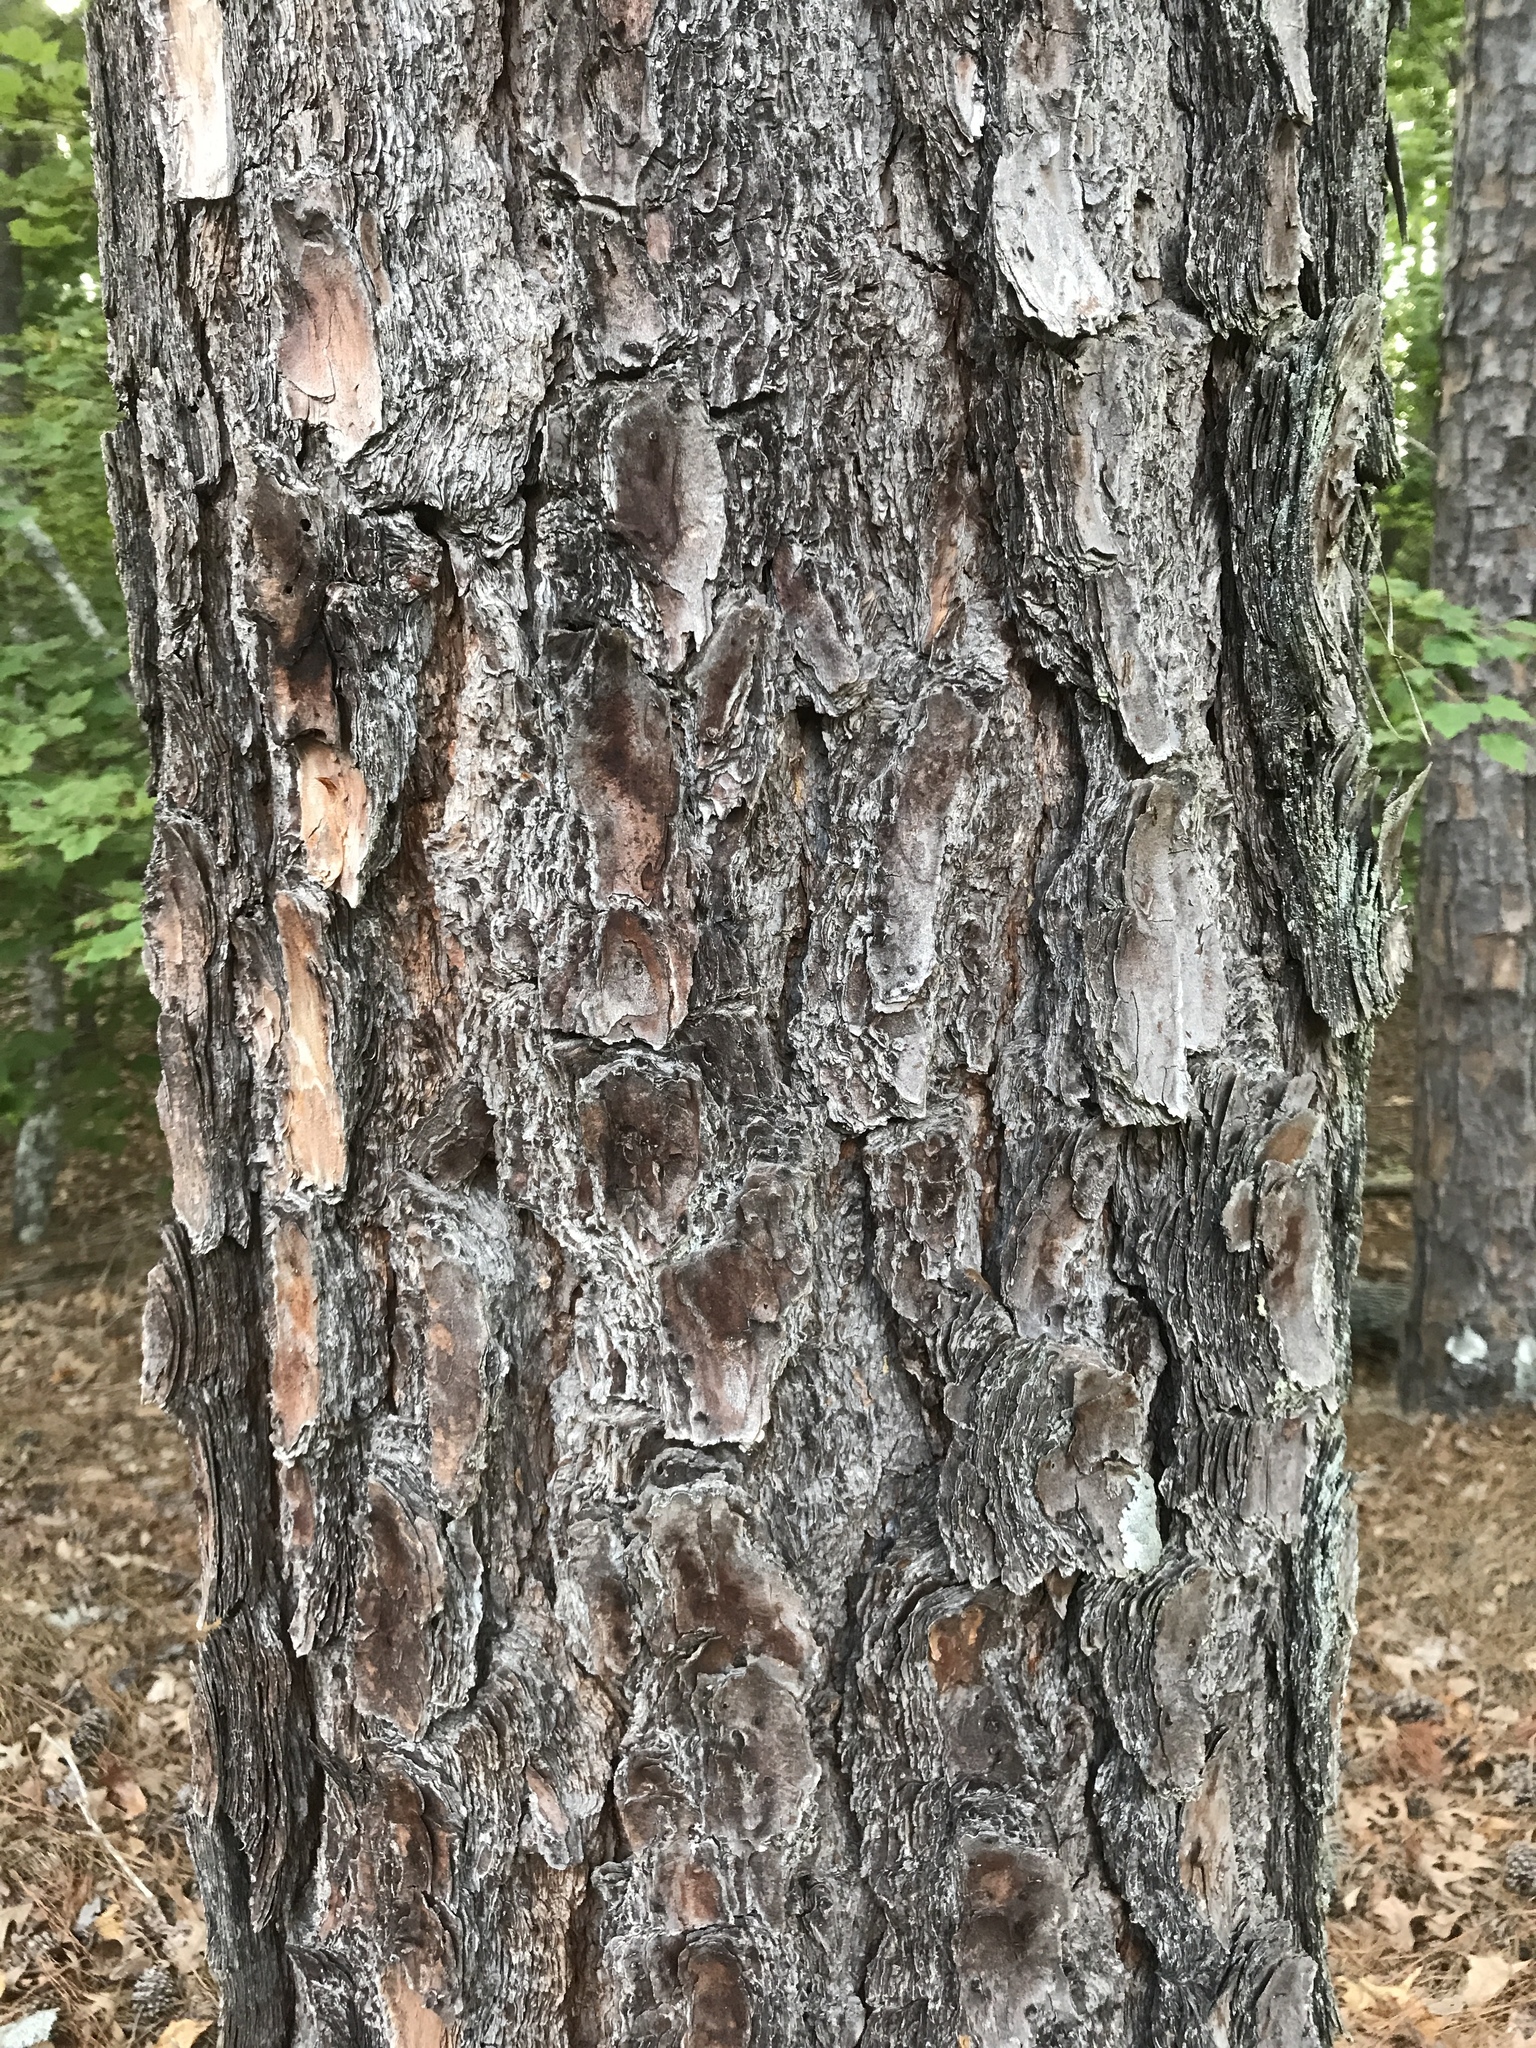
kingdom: Plantae
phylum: Tracheophyta
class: Pinopsida
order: Pinales
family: Pinaceae
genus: Pinus
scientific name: Pinus taeda
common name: Loblolly pine
